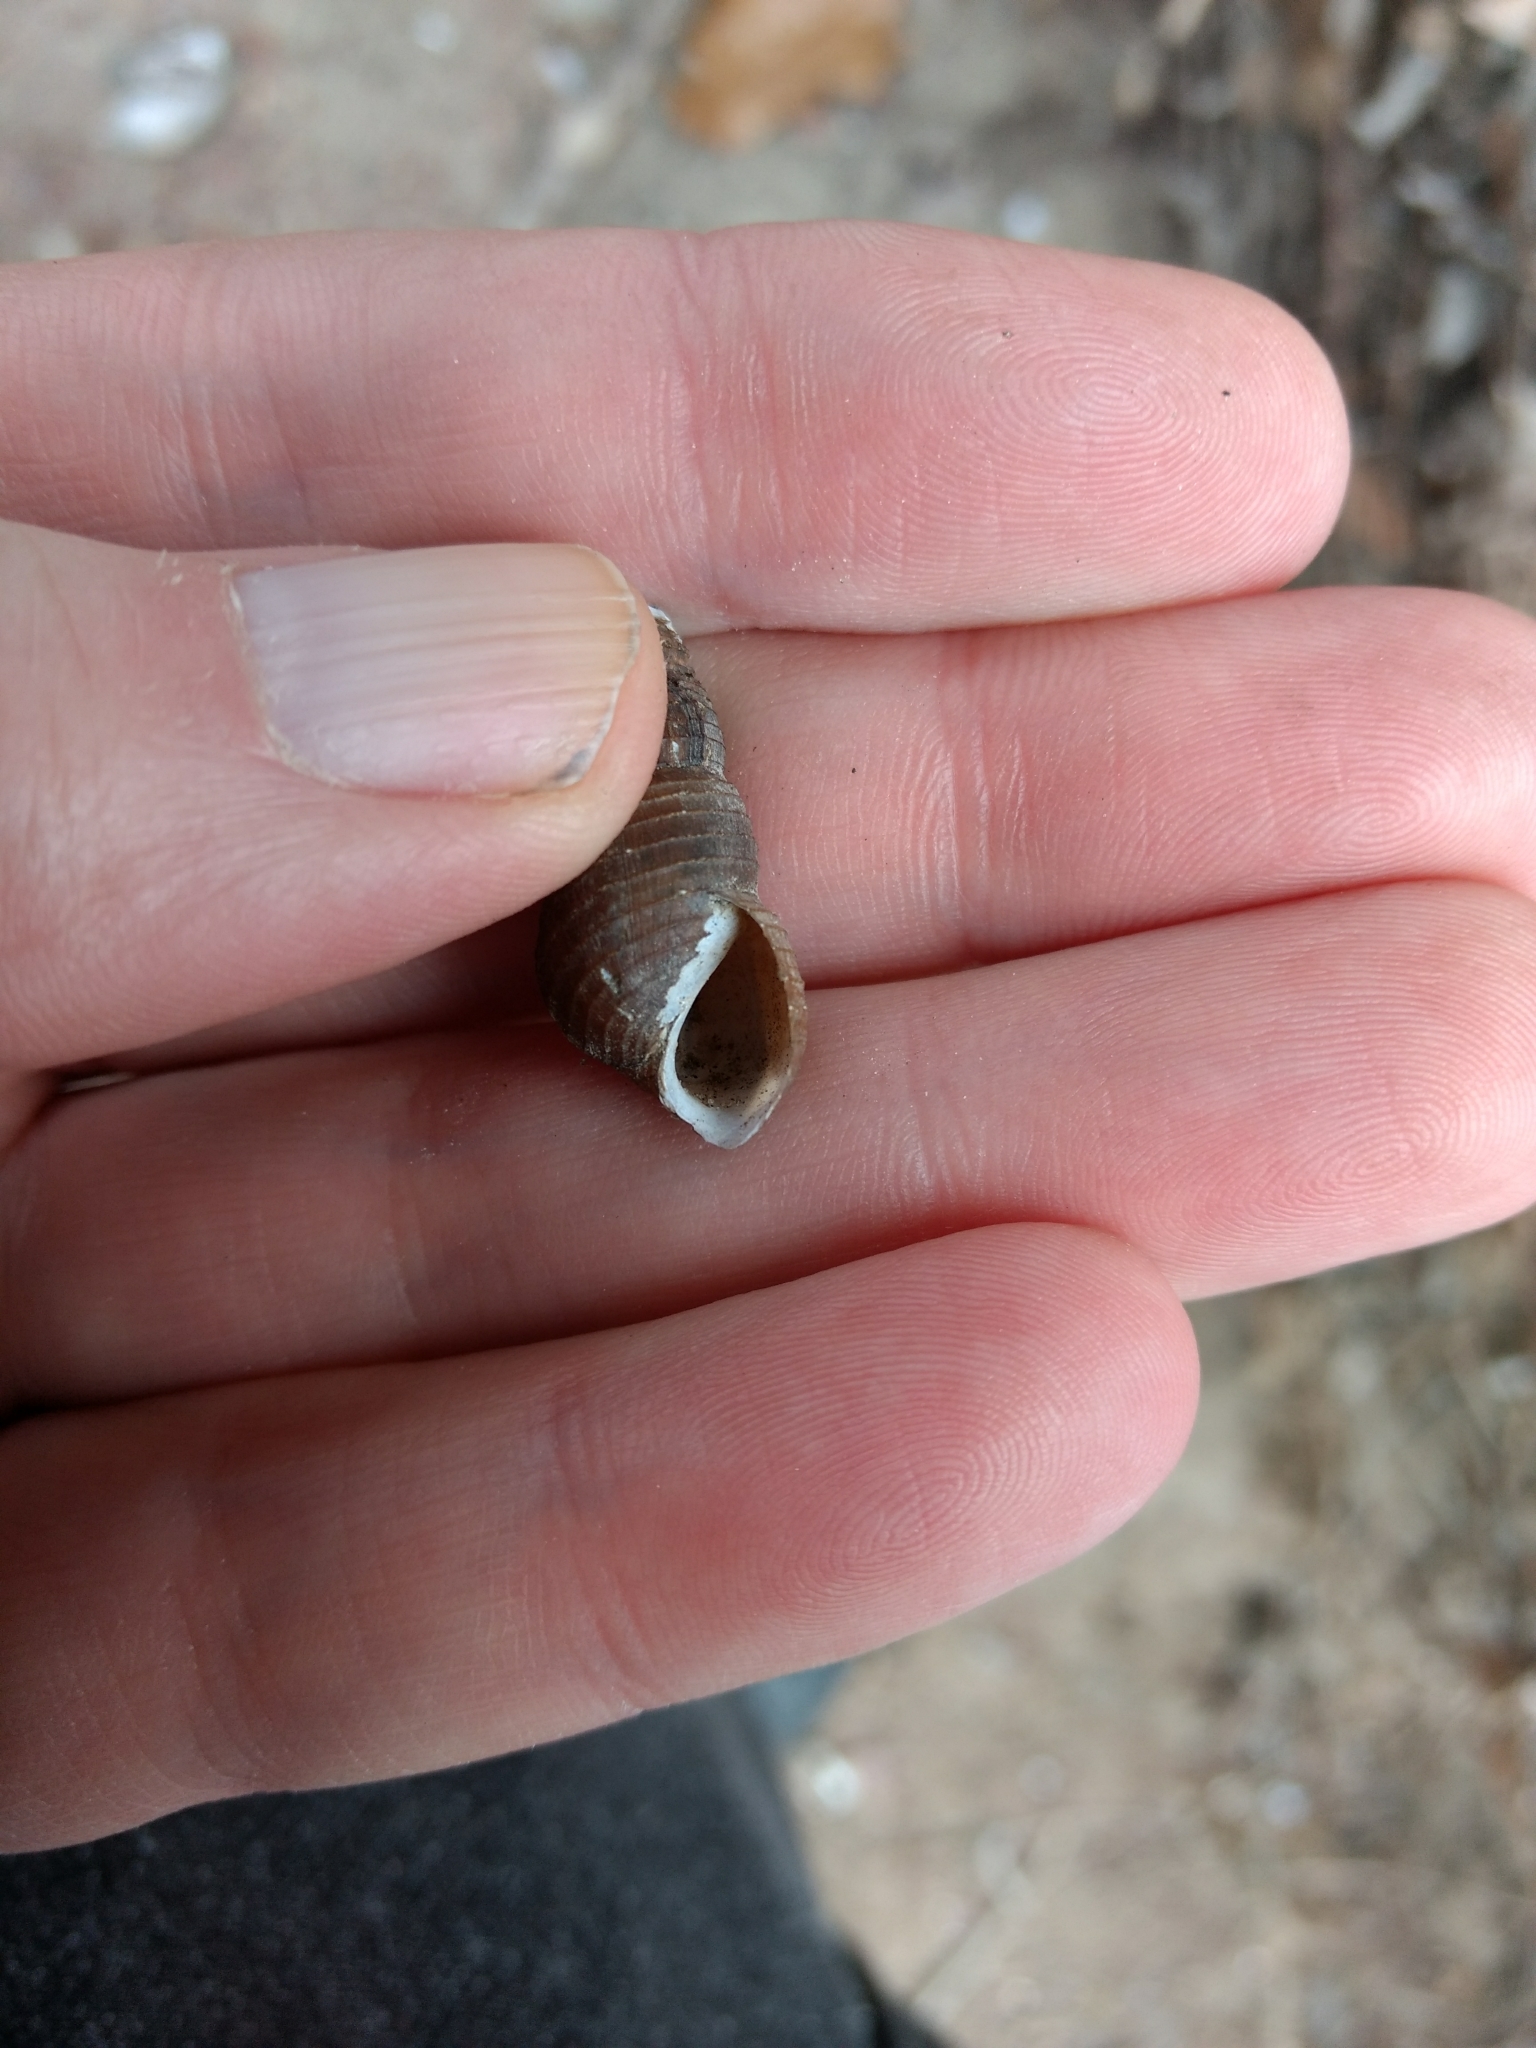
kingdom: Animalia
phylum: Mollusca
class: Gastropoda
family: Pleuroceridae
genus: Elimia
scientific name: Elimia virginica
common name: Piedmont elimia
